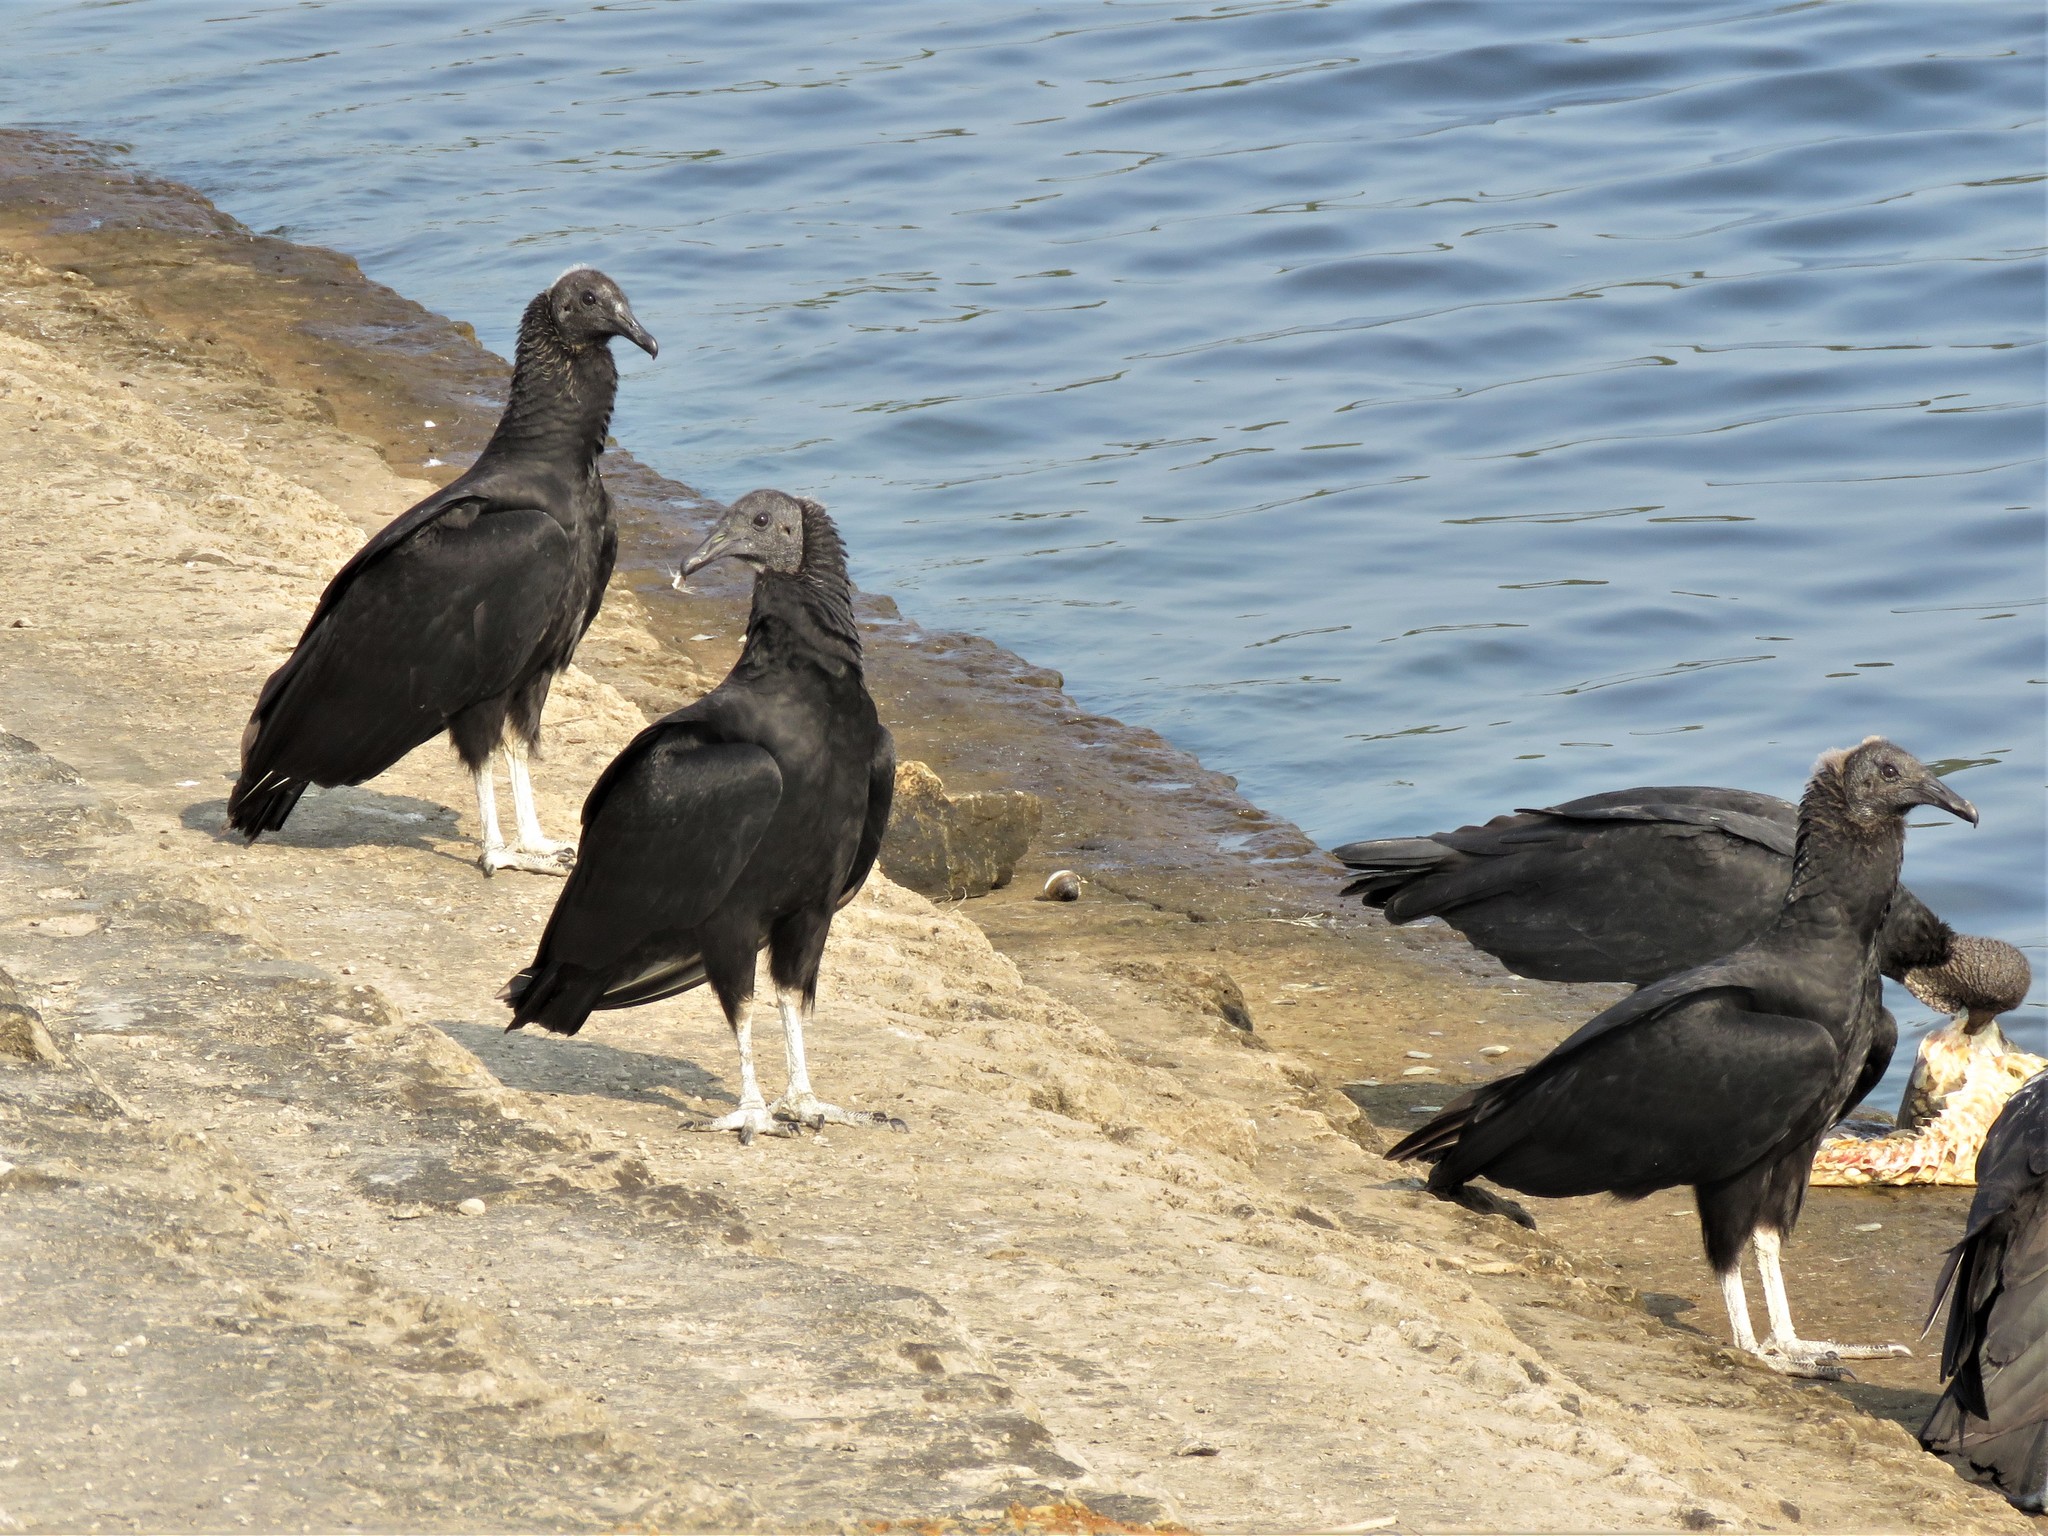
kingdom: Animalia
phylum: Chordata
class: Aves
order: Accipitriformes
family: Cathartidae
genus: Coragyps
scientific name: Coragyps atratus
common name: Black vulture
